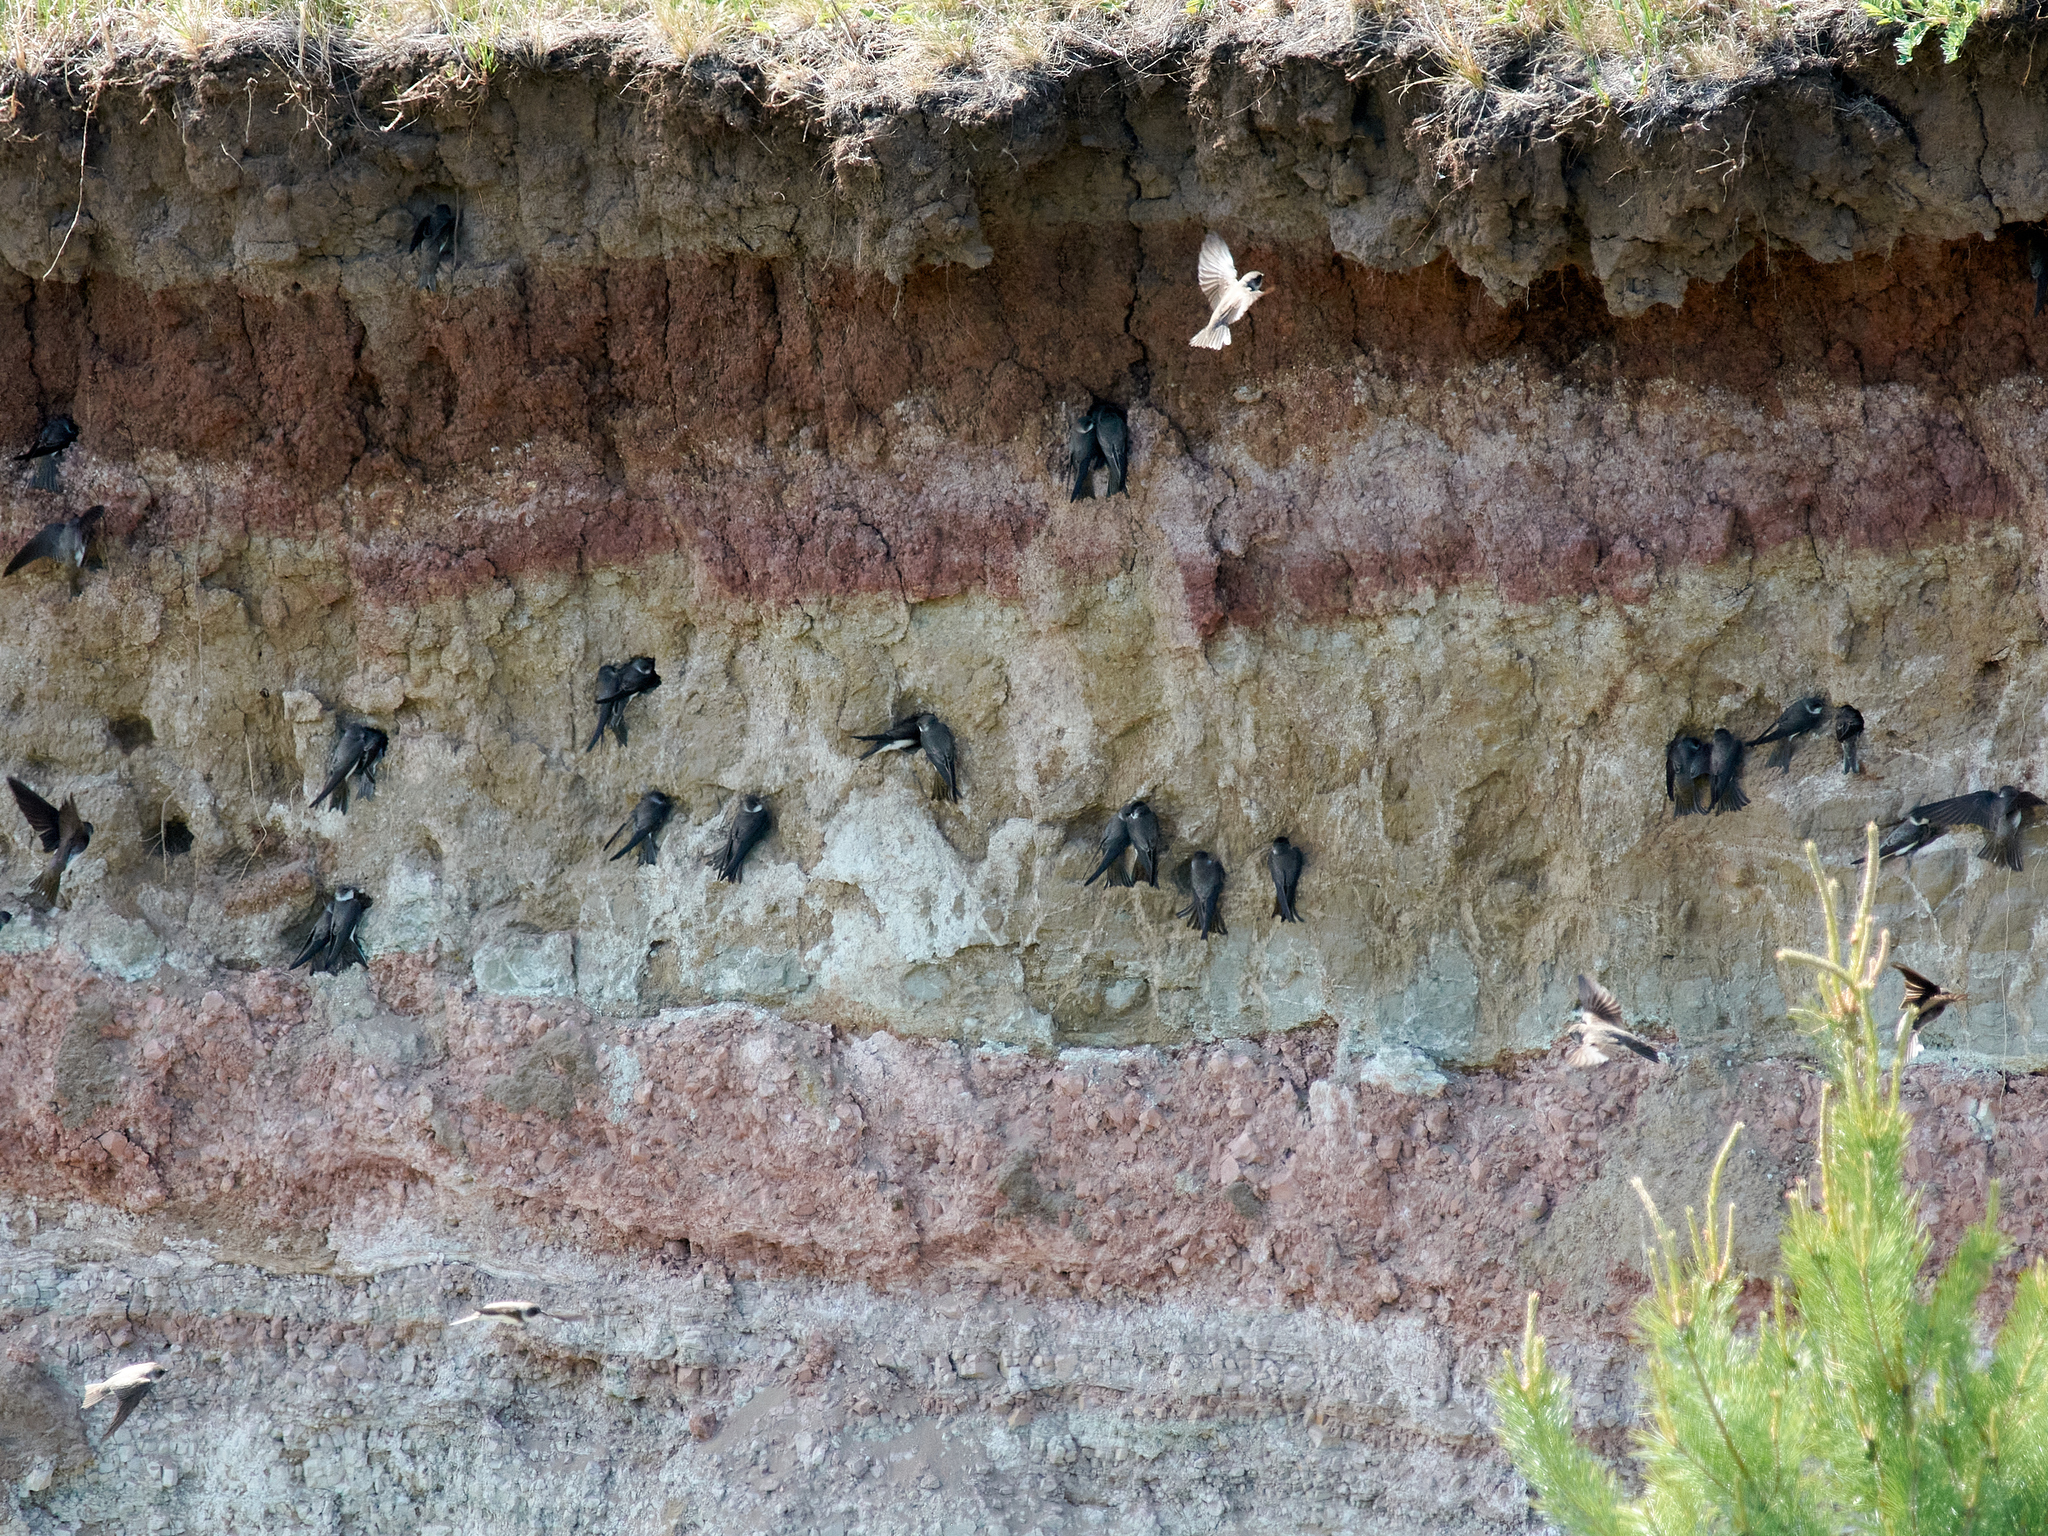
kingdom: Animalia
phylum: Chordata
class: Aves
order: Passeriformes
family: Hirundinidae
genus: Riparia
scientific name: Riparia riparia
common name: Sand martin
